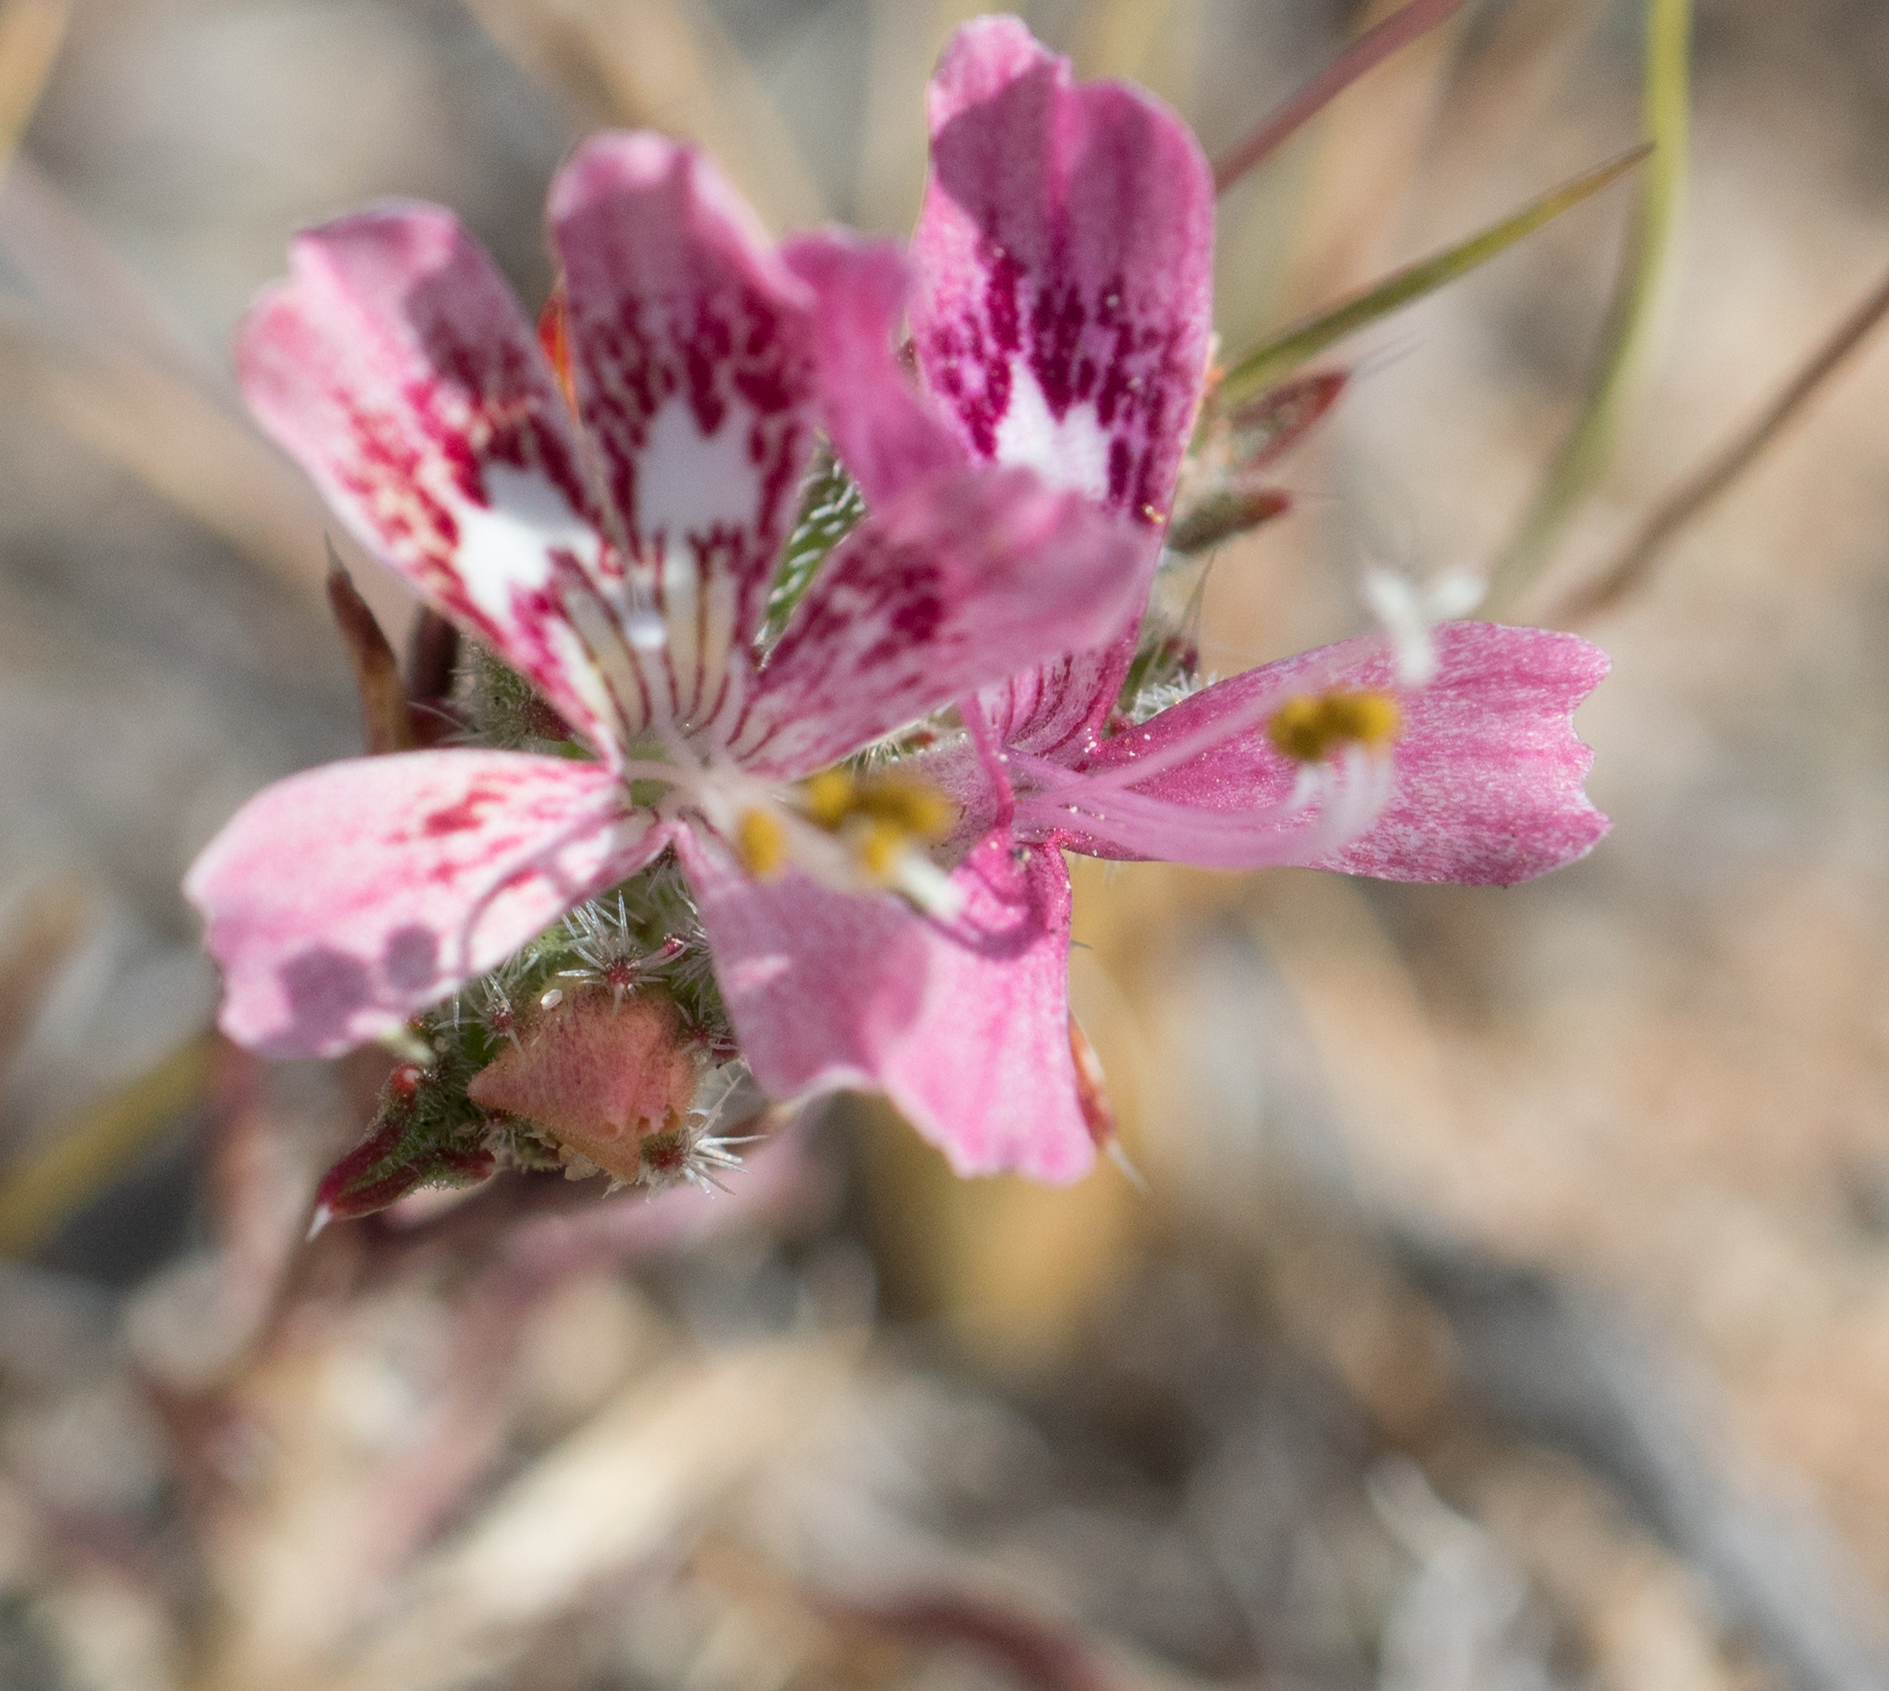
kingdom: Plantae
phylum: Tracheophyta
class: Magnoliopsida
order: Ericales
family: Polemoniaceae
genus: Loeseliastrum
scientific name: Loeseliastrum schottii
